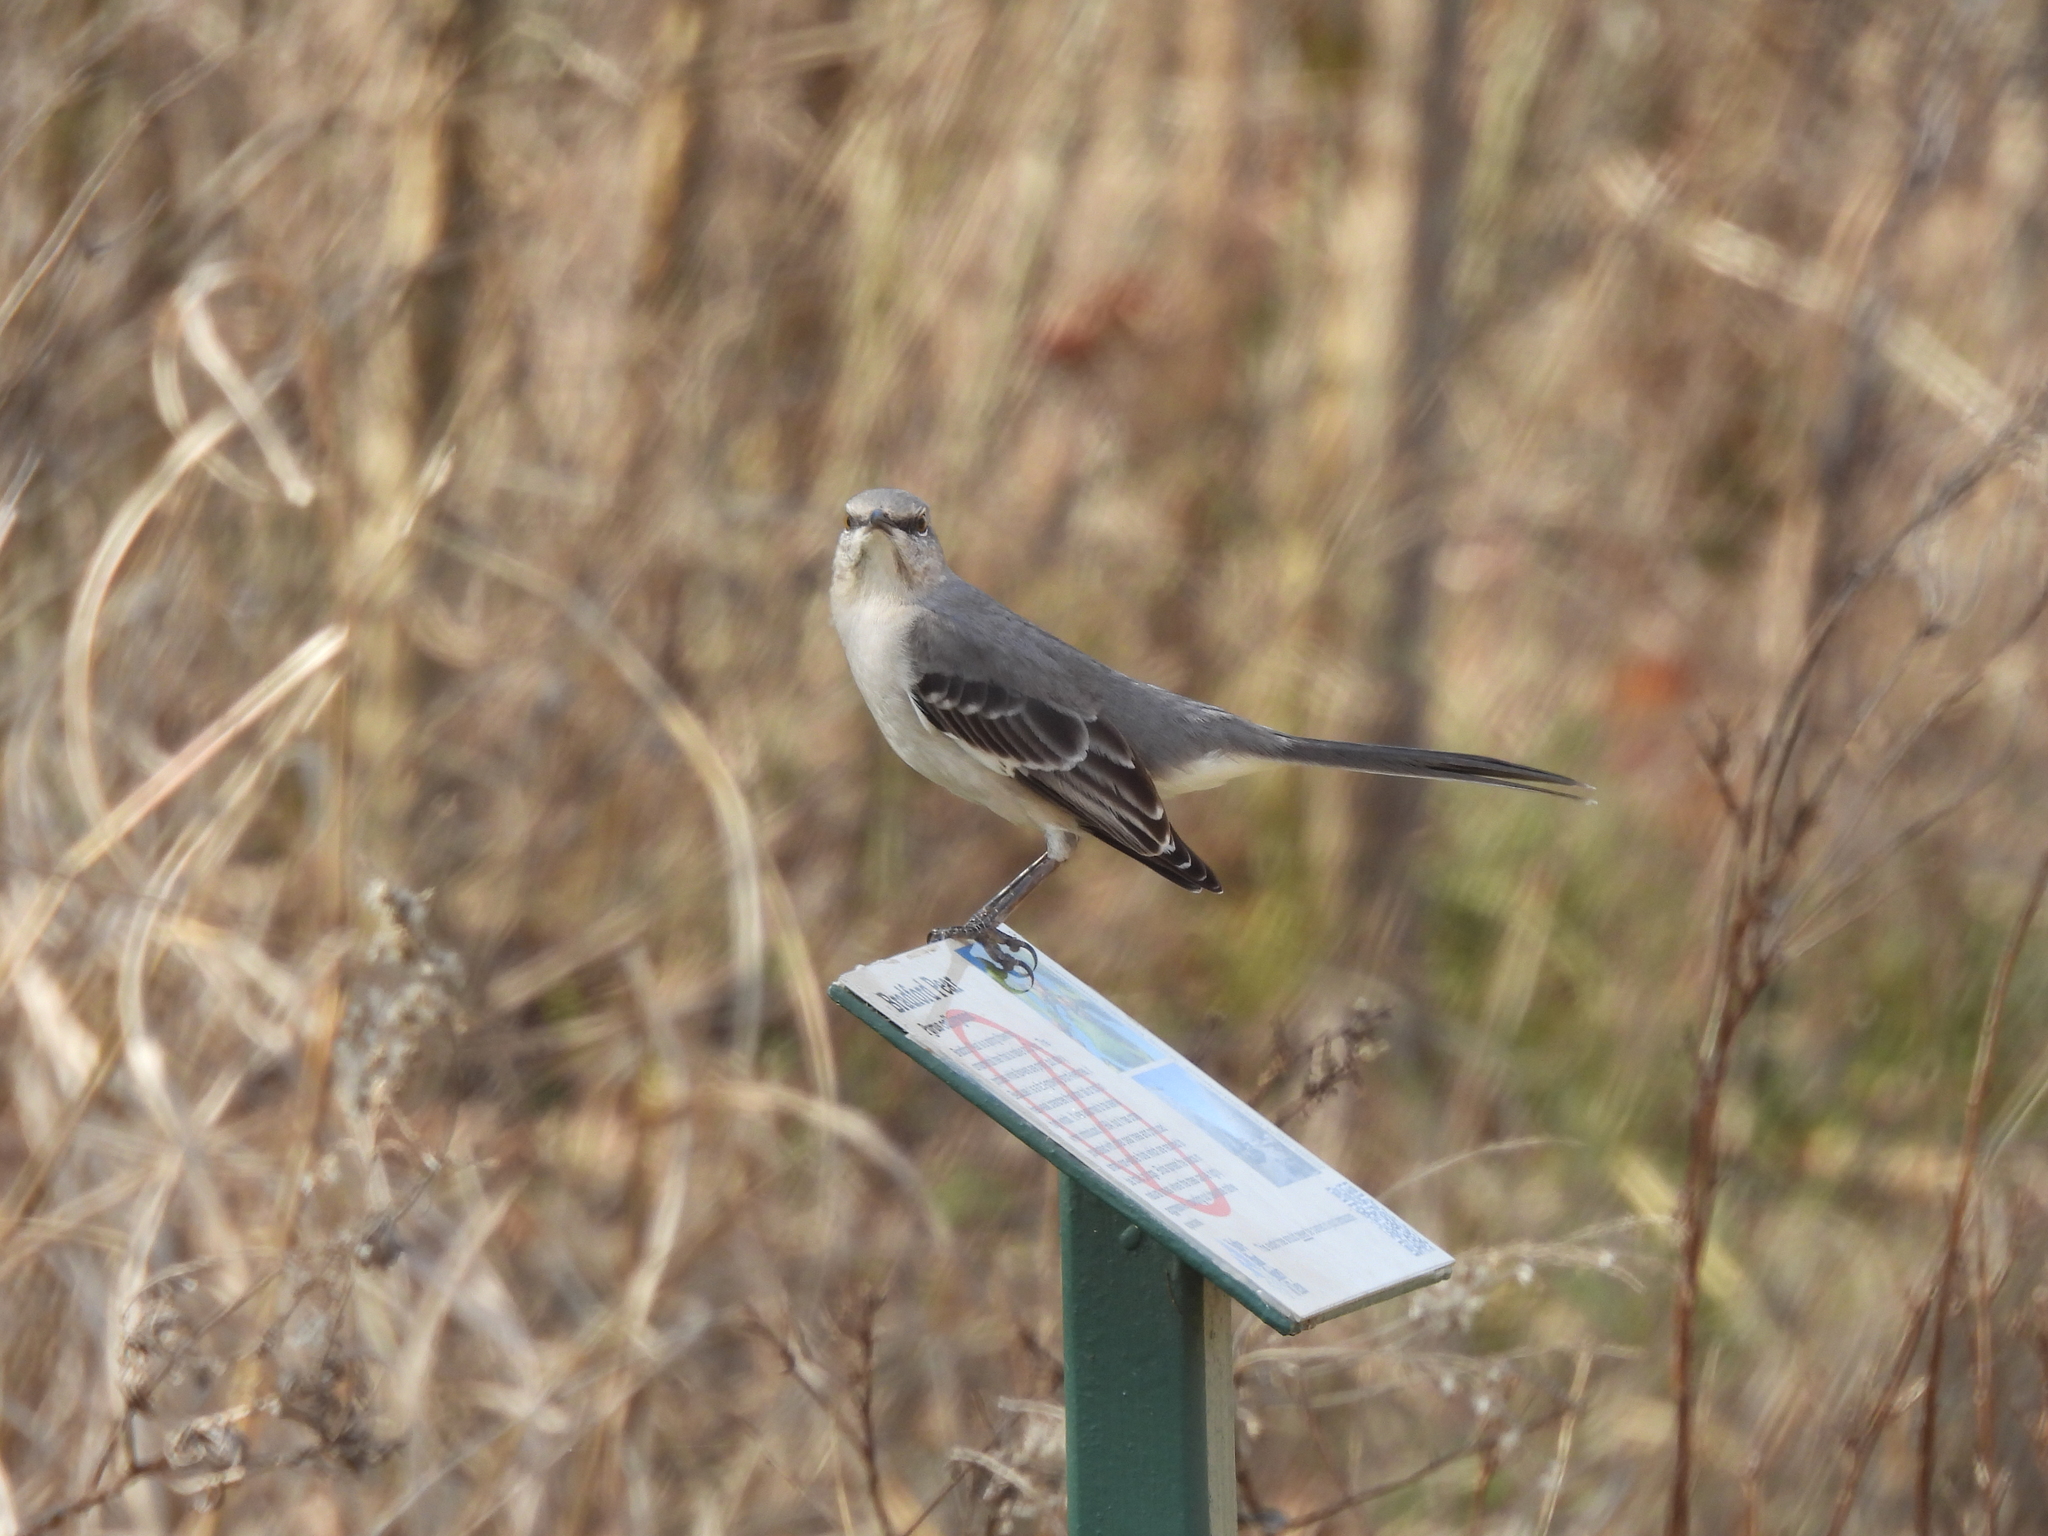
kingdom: Animalia
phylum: Chordata
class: Aves
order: Passeriformes
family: Mimidae
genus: Mimus
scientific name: Mimus polyglottos
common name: Northern mockingbird
